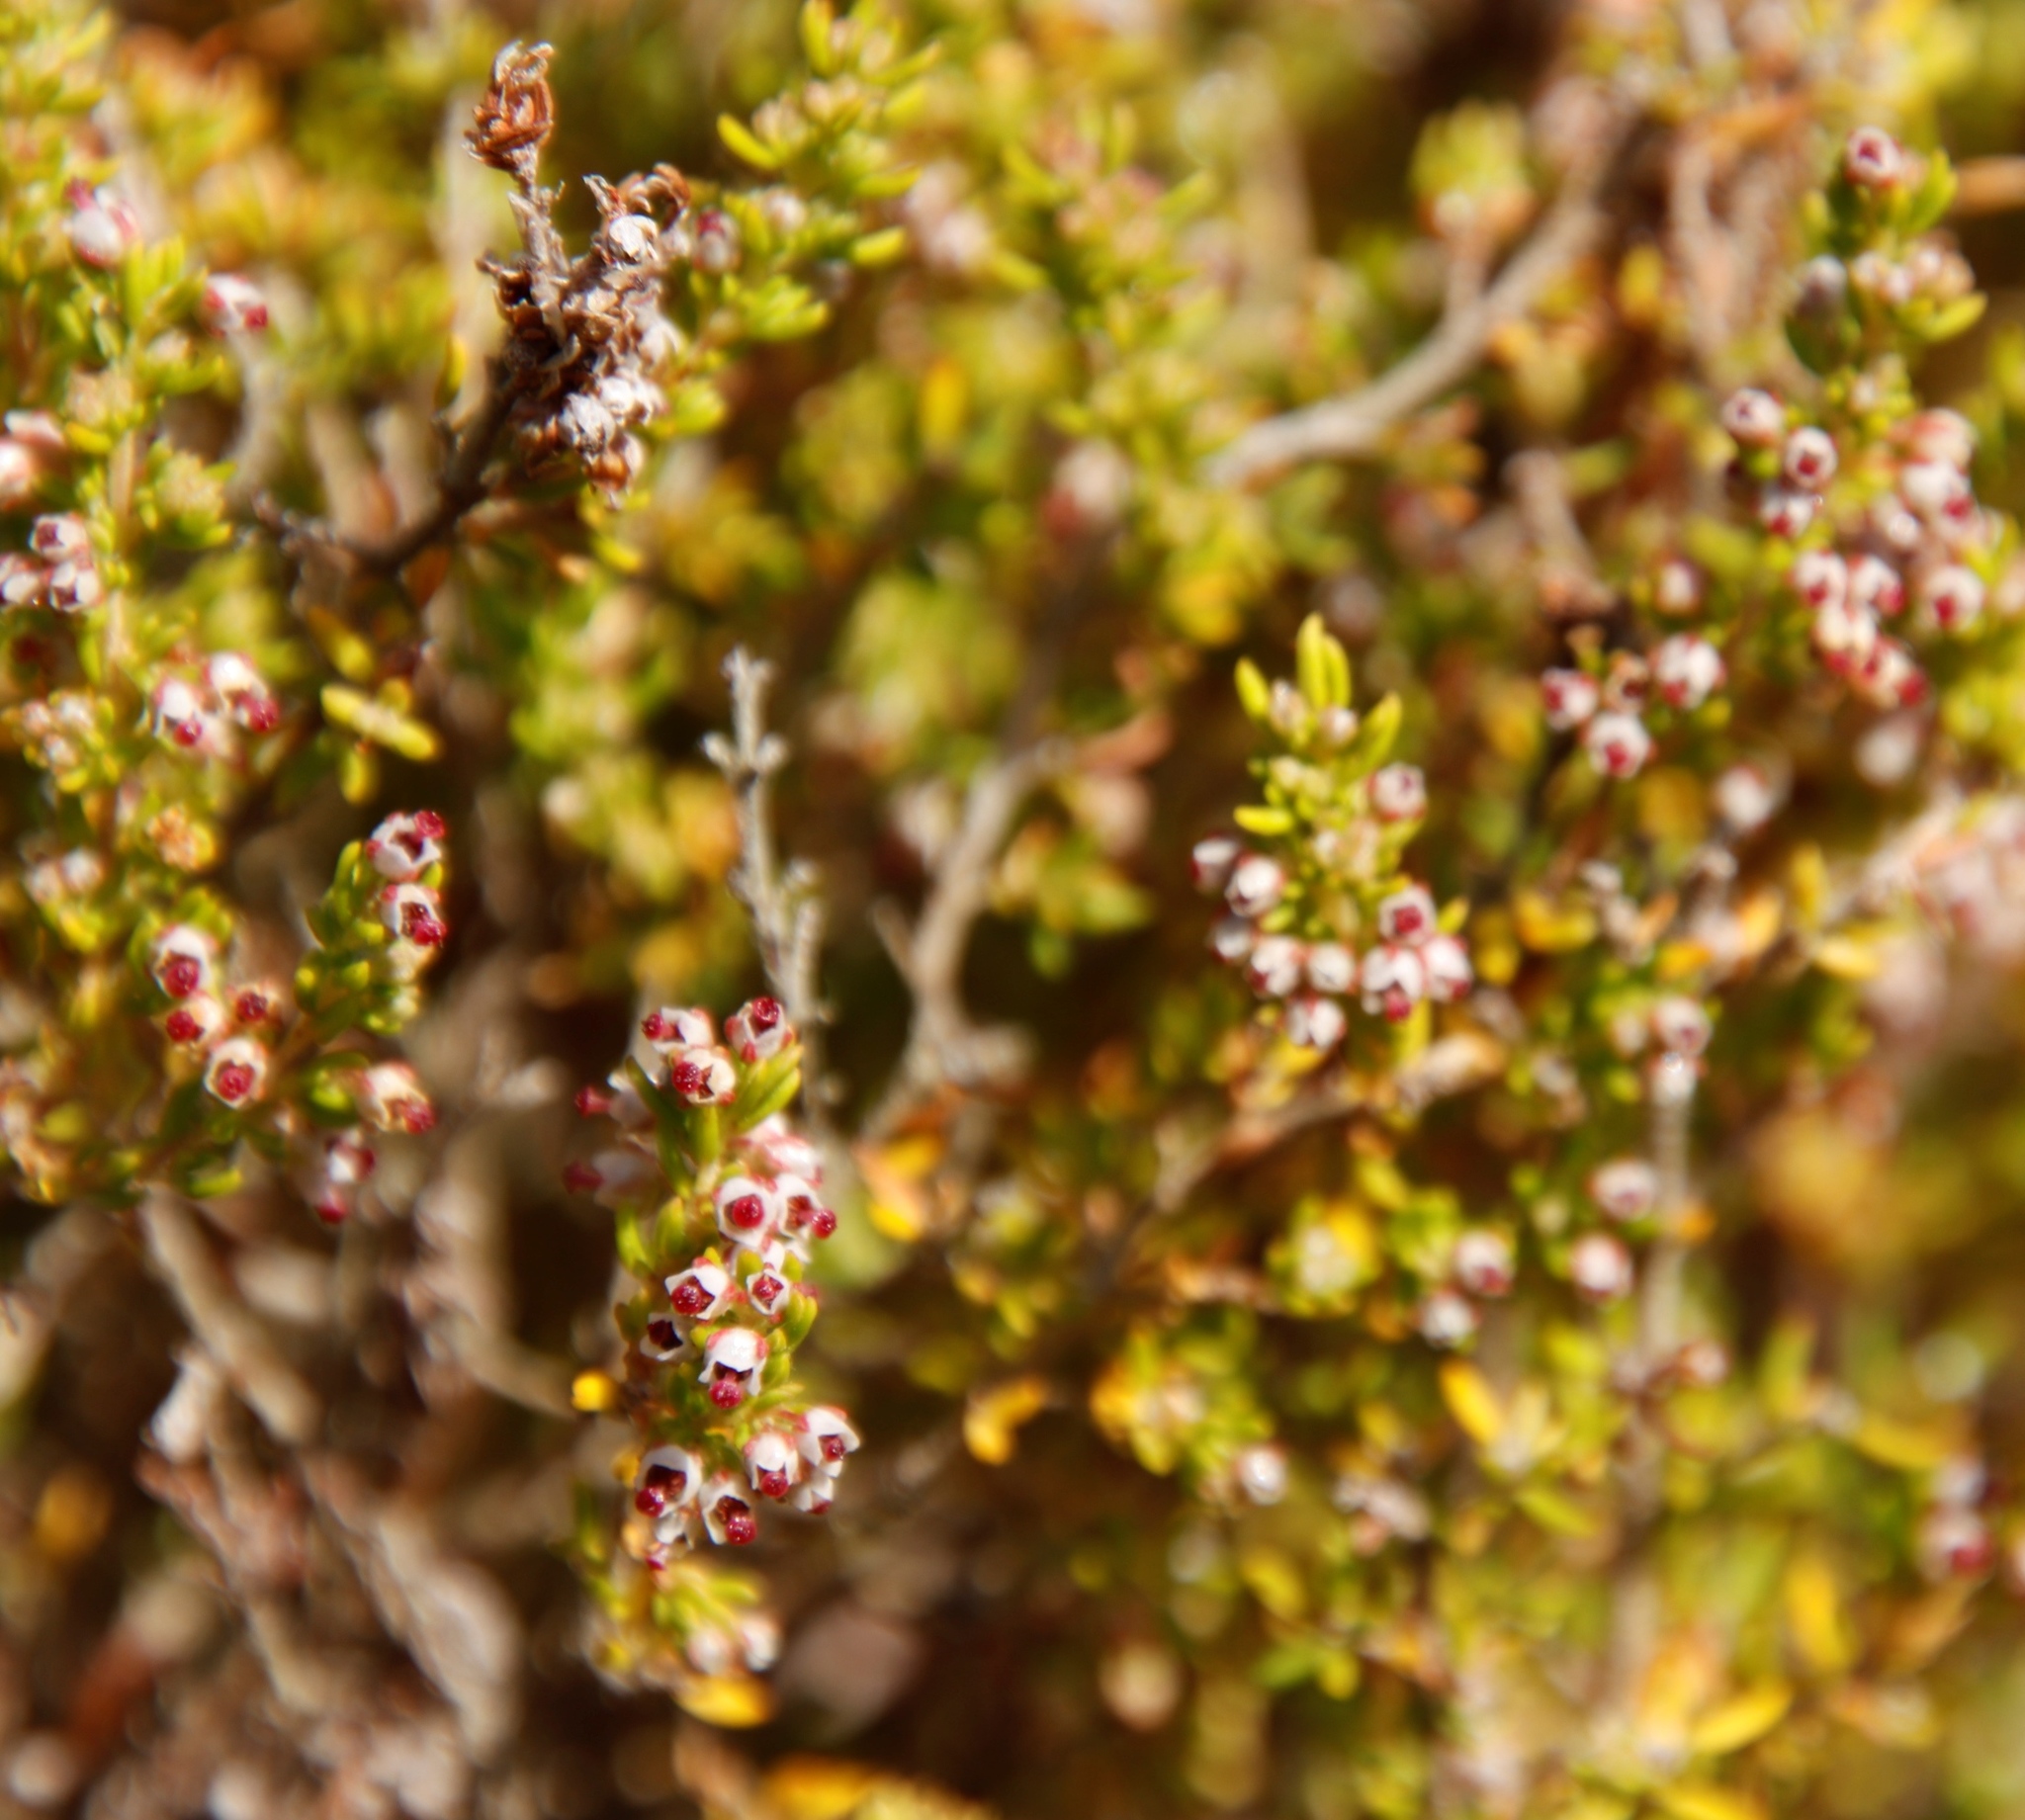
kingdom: Plantae
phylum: Tracheophyta
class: Magnoliopsida
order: Ericales
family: Ericaceae
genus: Erica
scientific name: Erica hispidula
